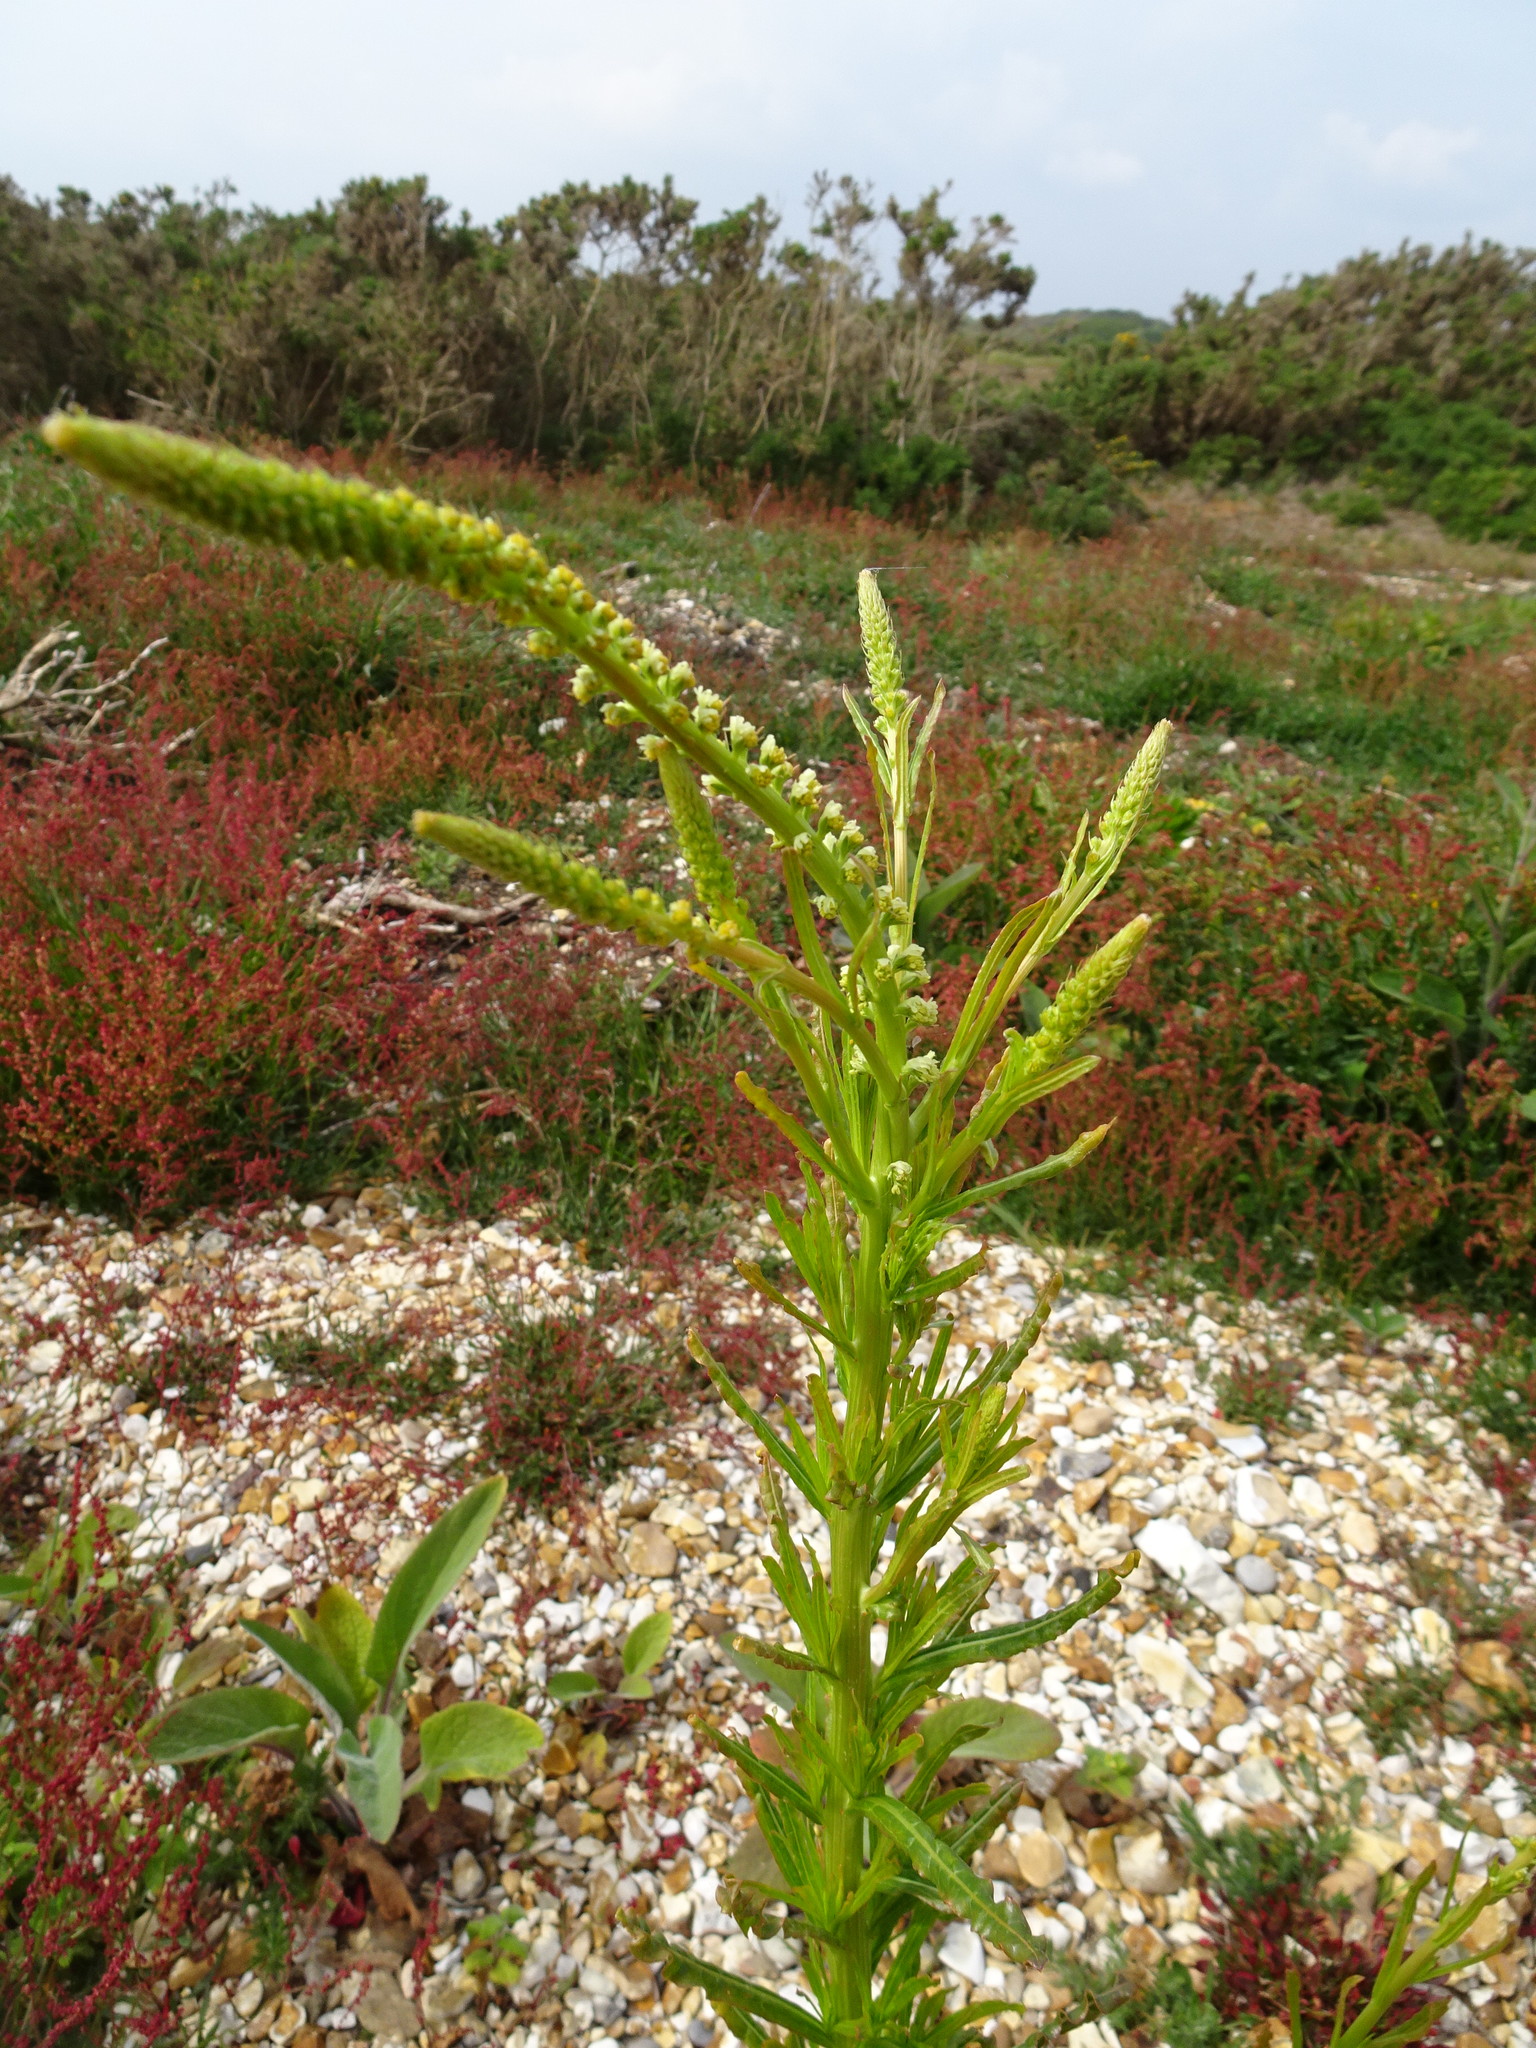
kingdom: Plantae
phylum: Tracheophyta
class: Magnoliopsida
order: Brassicales
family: Resedaceae
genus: Reseda
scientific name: Reseda luteola
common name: Weld
